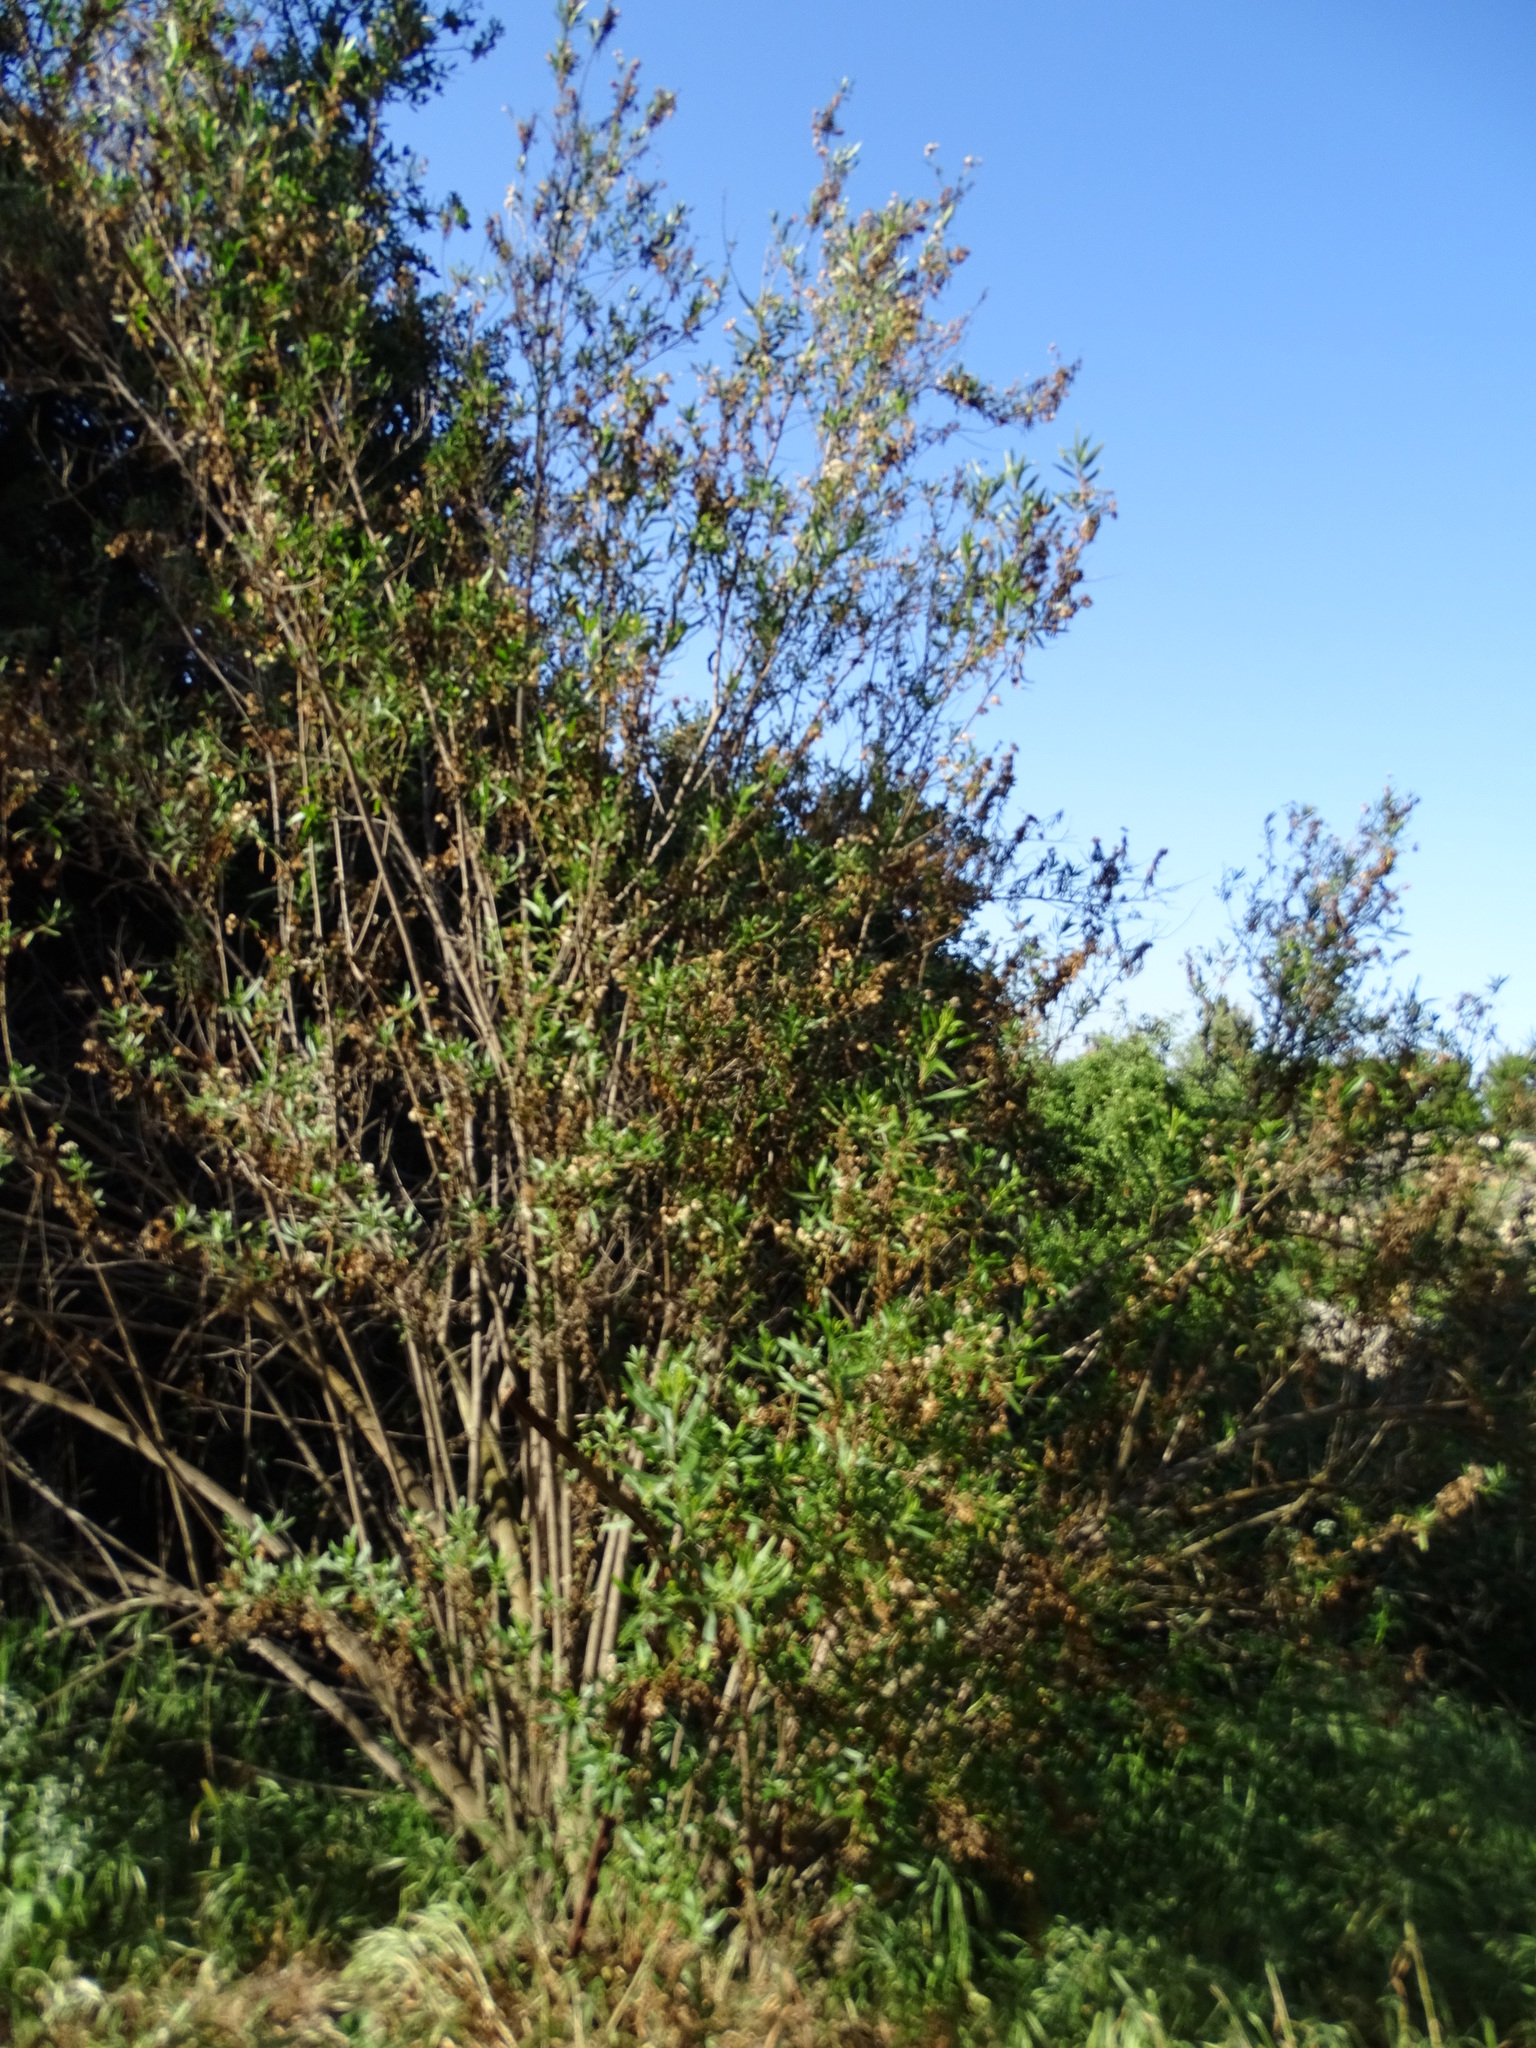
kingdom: Plantae
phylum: Tracheophyta
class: Magnoliopsida
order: Asterales
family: Asteraceae
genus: Baccharis
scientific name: Baccharis salicifolia
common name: Sticky baccharis
